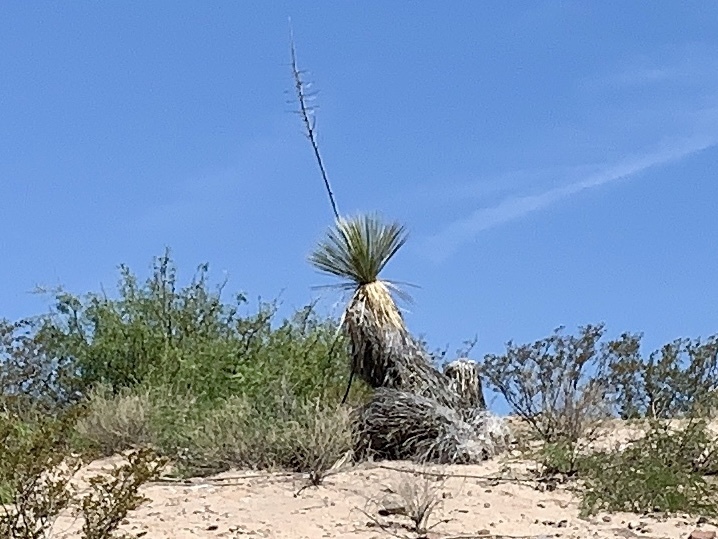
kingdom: Plantae
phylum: Tracheophyta
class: Liliopsida
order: Asparagales
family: Asparagaceae
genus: Yucca
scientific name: Yucca elata
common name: Palmella
